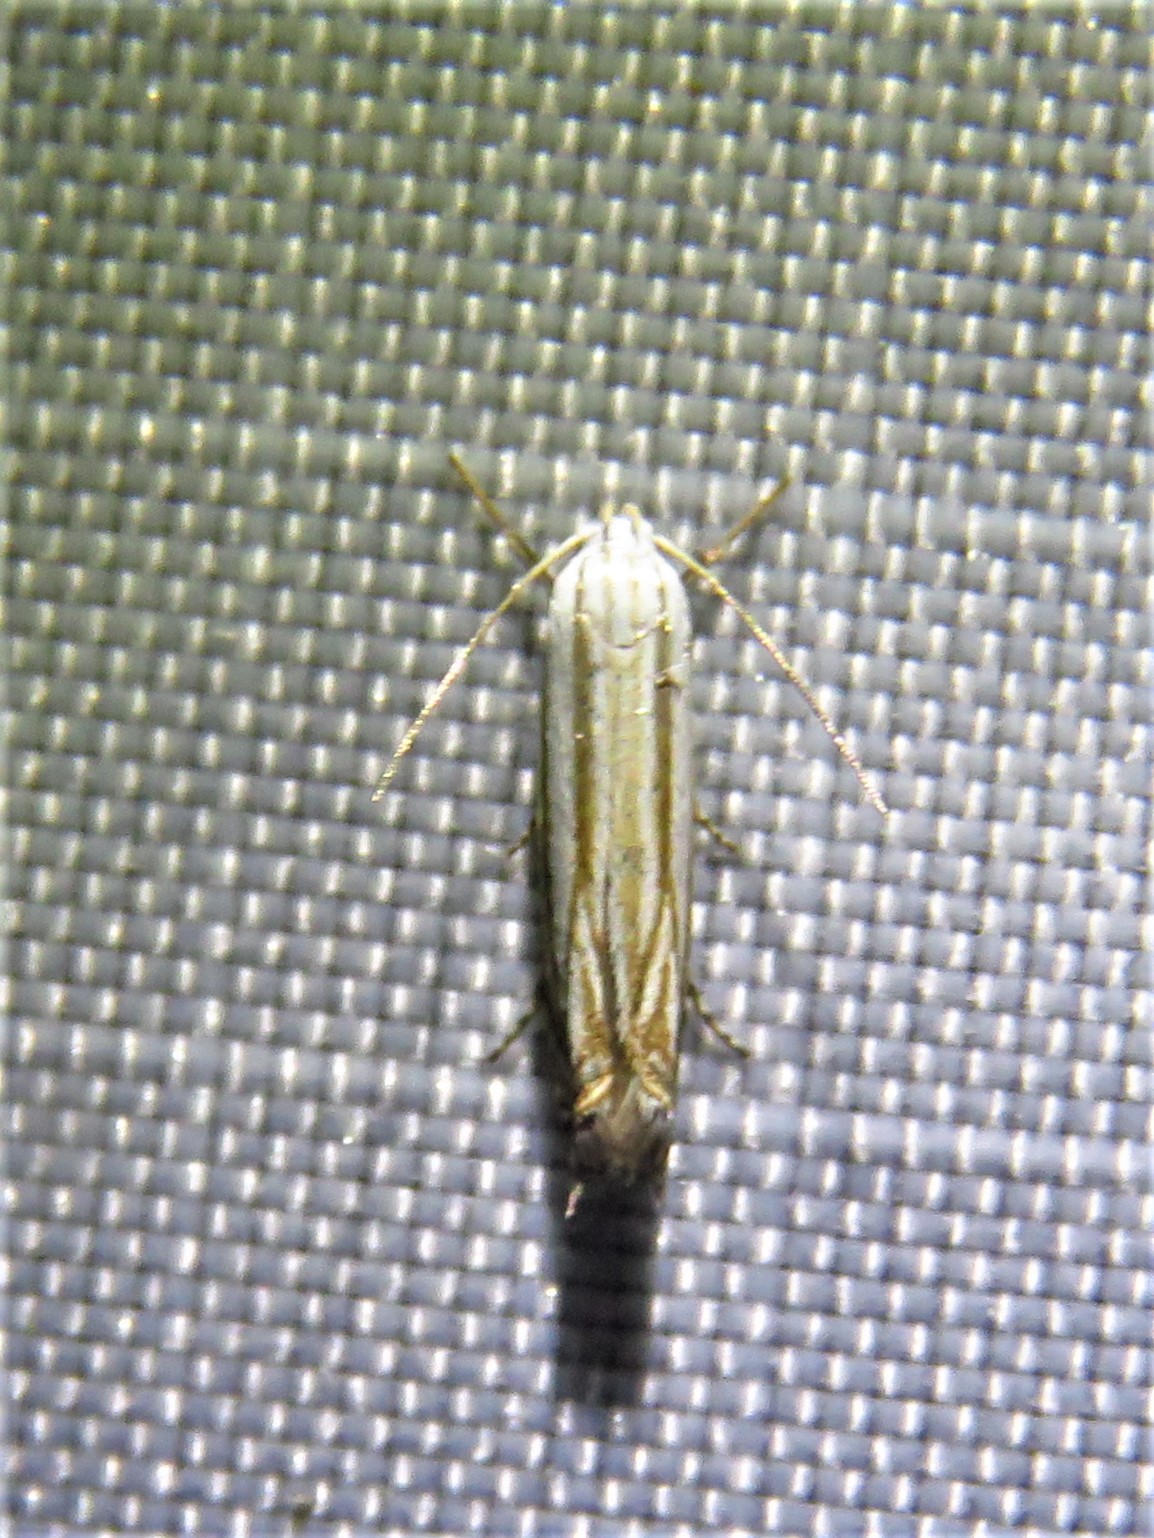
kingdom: Animalia
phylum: Arthropoda
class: Insecta
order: Lepidoptera
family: Gelechiidae
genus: Polyhymno
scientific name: Polyhymno luteostrigella
